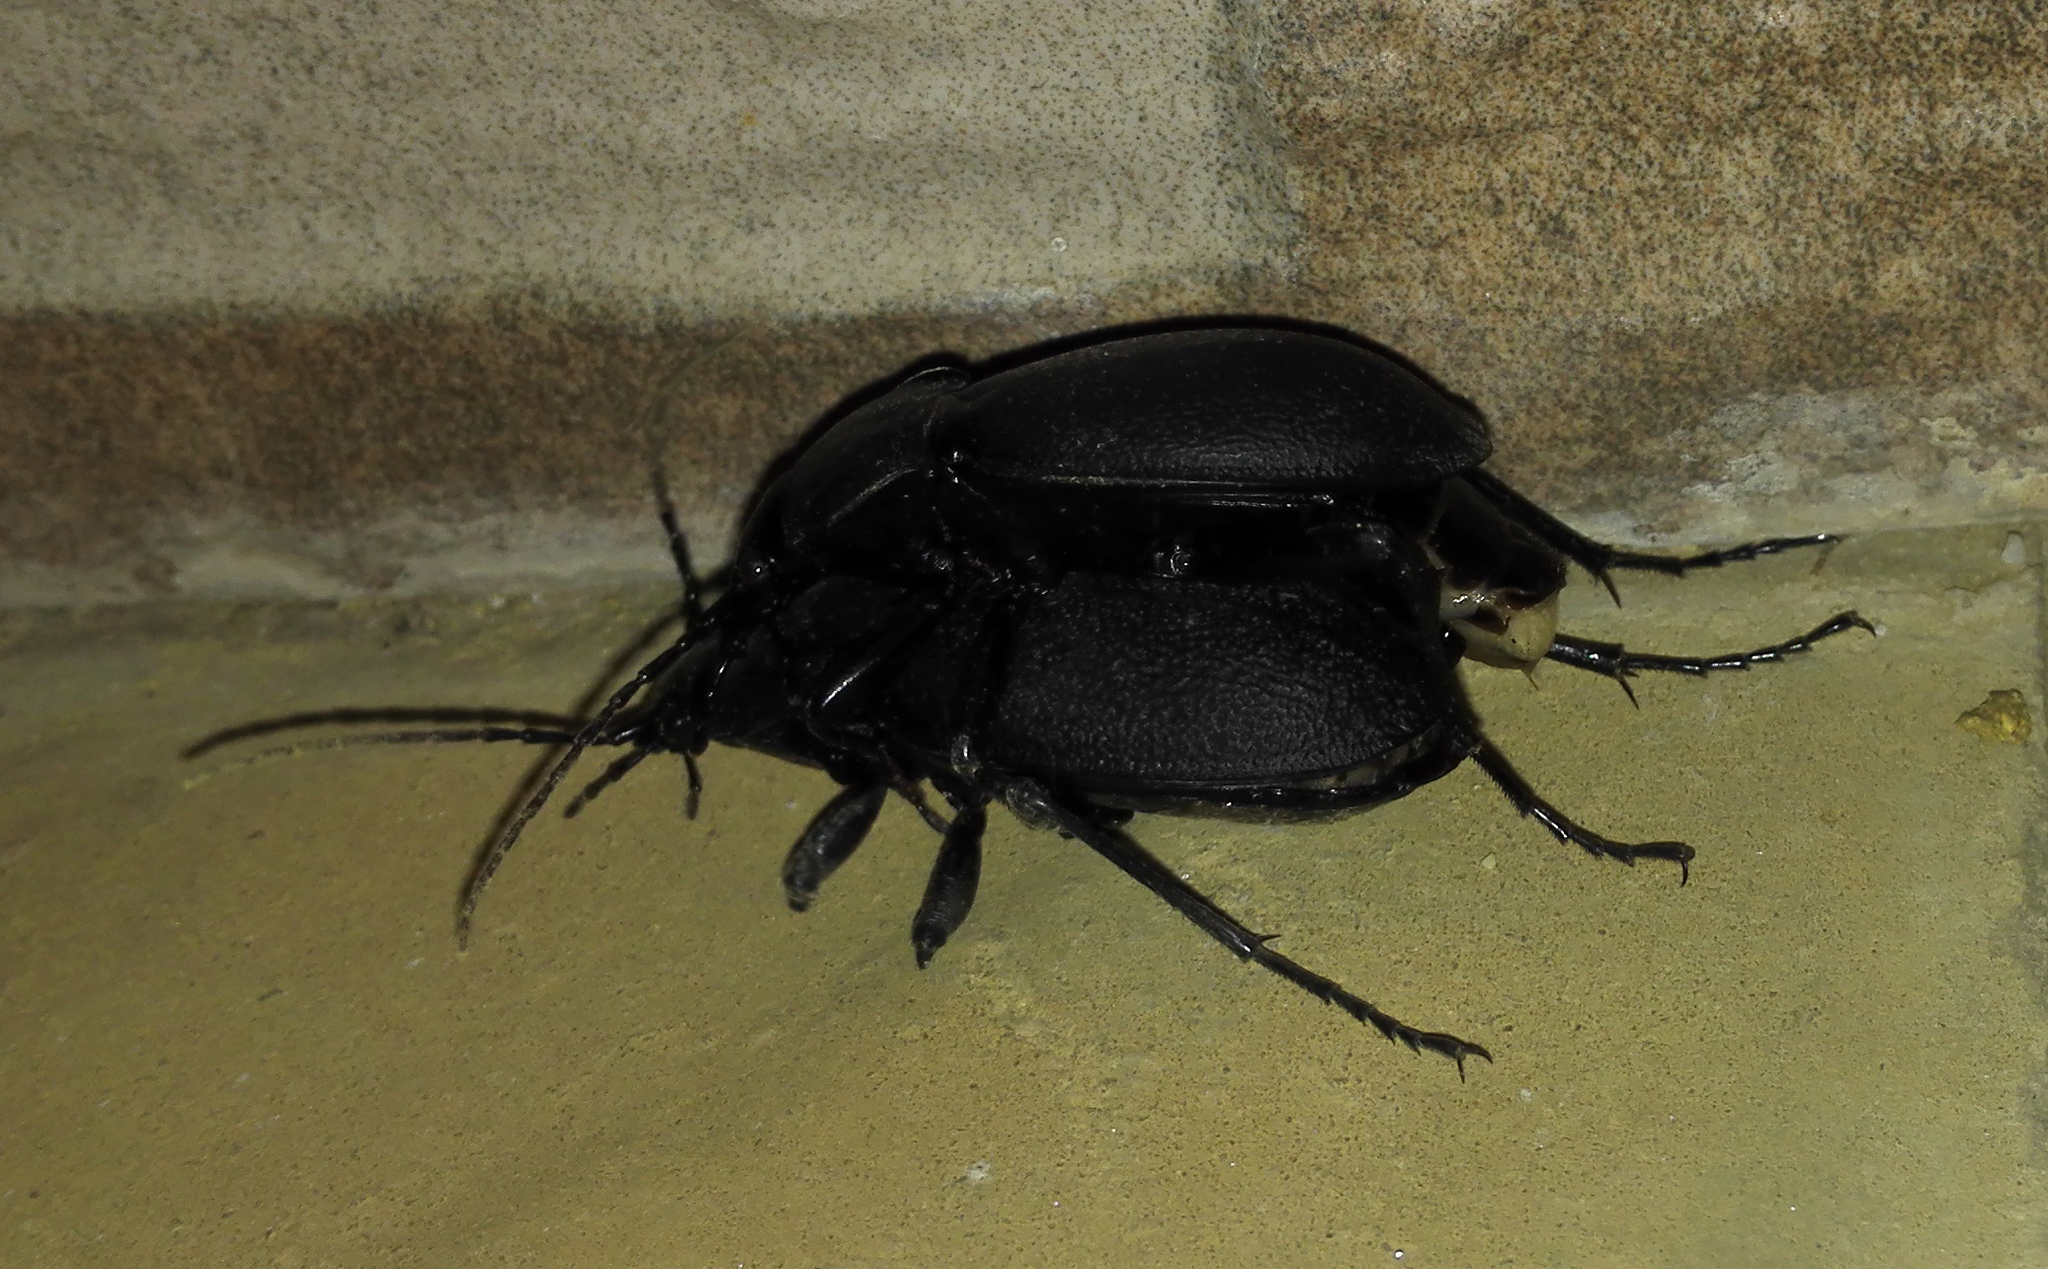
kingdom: Animalia
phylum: Arthropoda
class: Insecta
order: Coleoptera
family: Carabidae
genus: Carabus
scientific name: Carabus coriaceus
